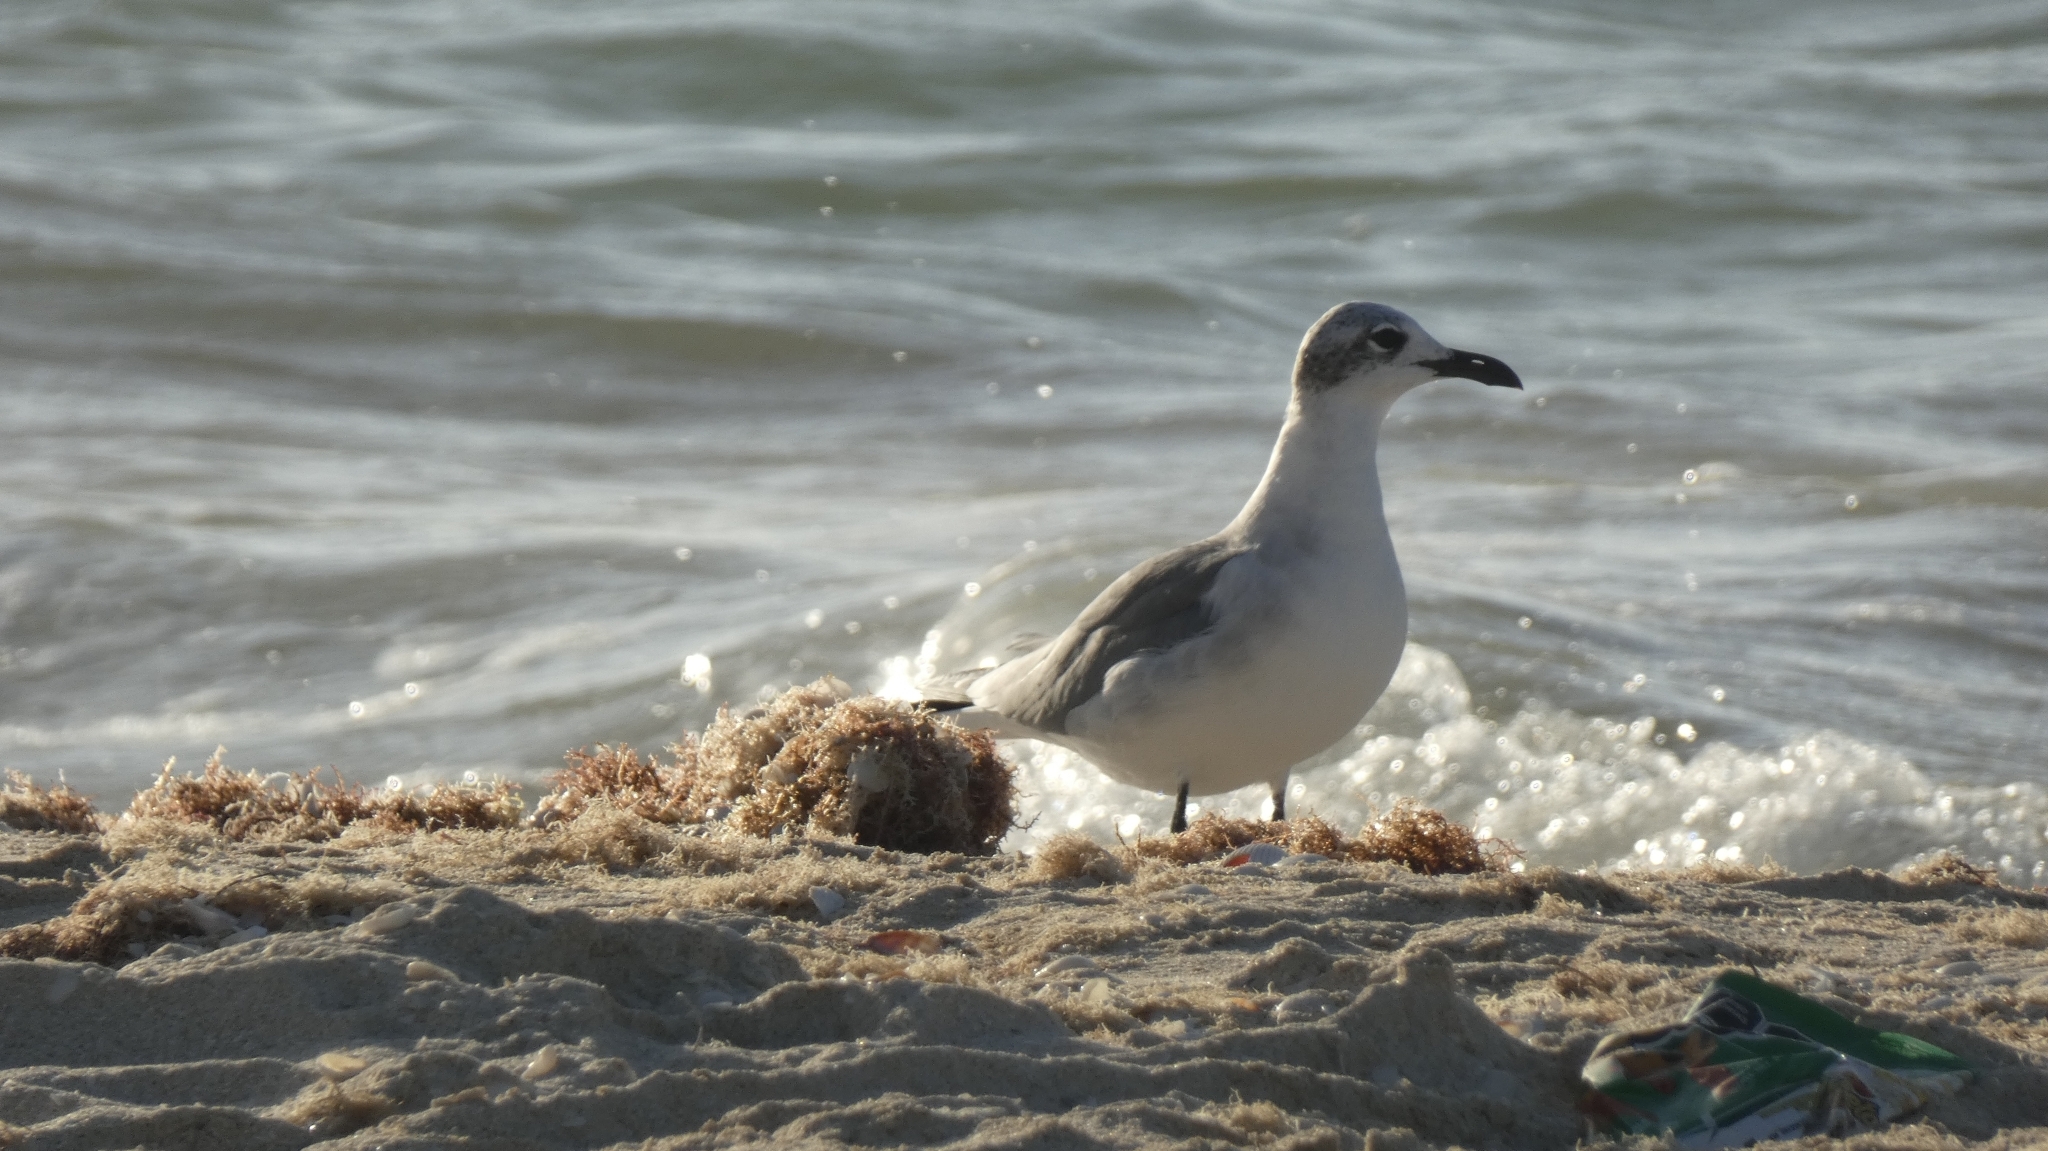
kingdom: Animalia
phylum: Chordata
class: Aves
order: Charadriiformes
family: Laridae
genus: Leucophaeus
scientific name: Leucophaeus atricilla
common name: Laughing gull
